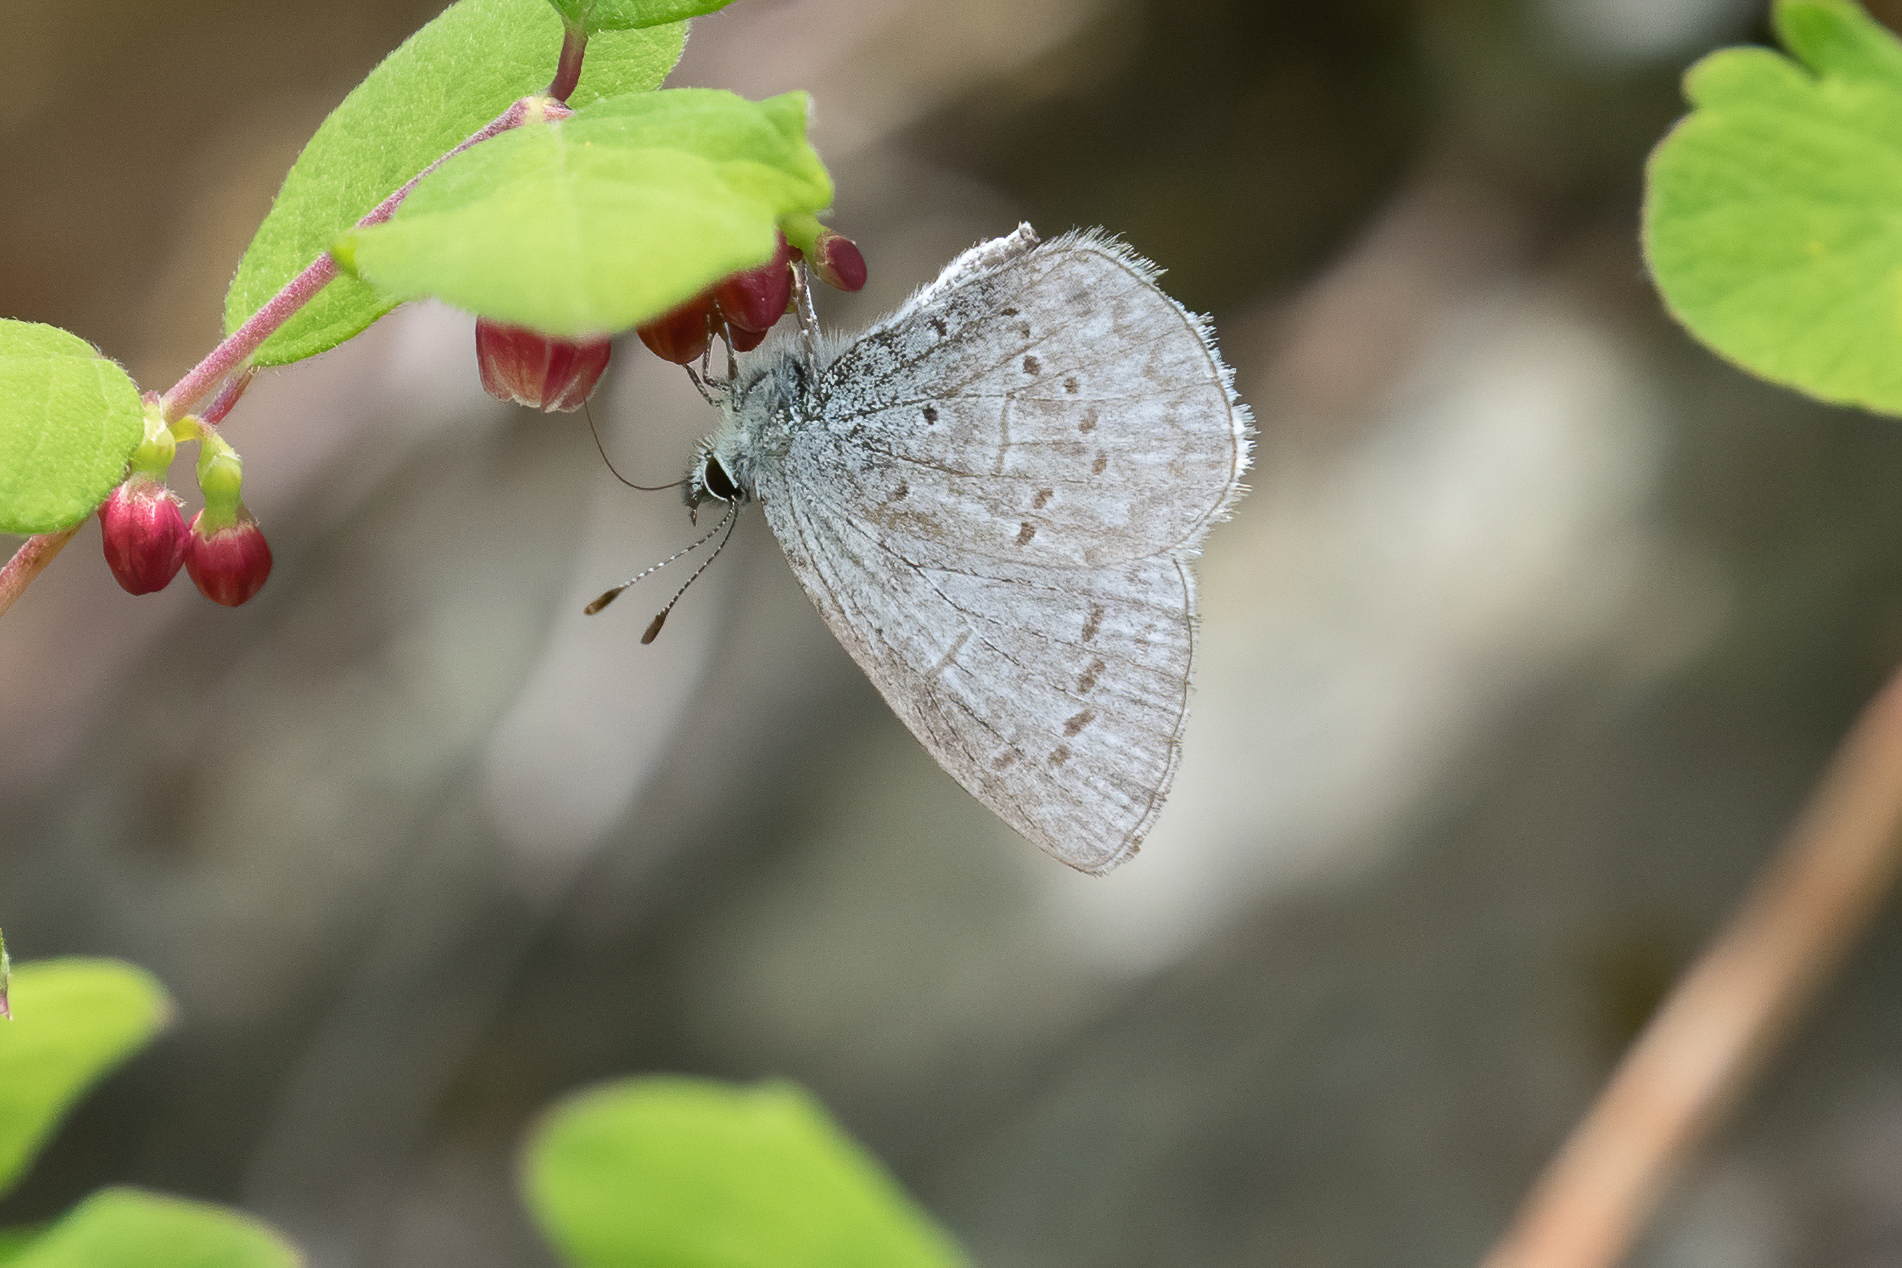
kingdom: Animalia
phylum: Arthropoda
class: Insecta
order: Lepidoptera
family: Lycaenidae
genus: Celastrina
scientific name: Celastrina ladon
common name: Spring azure
